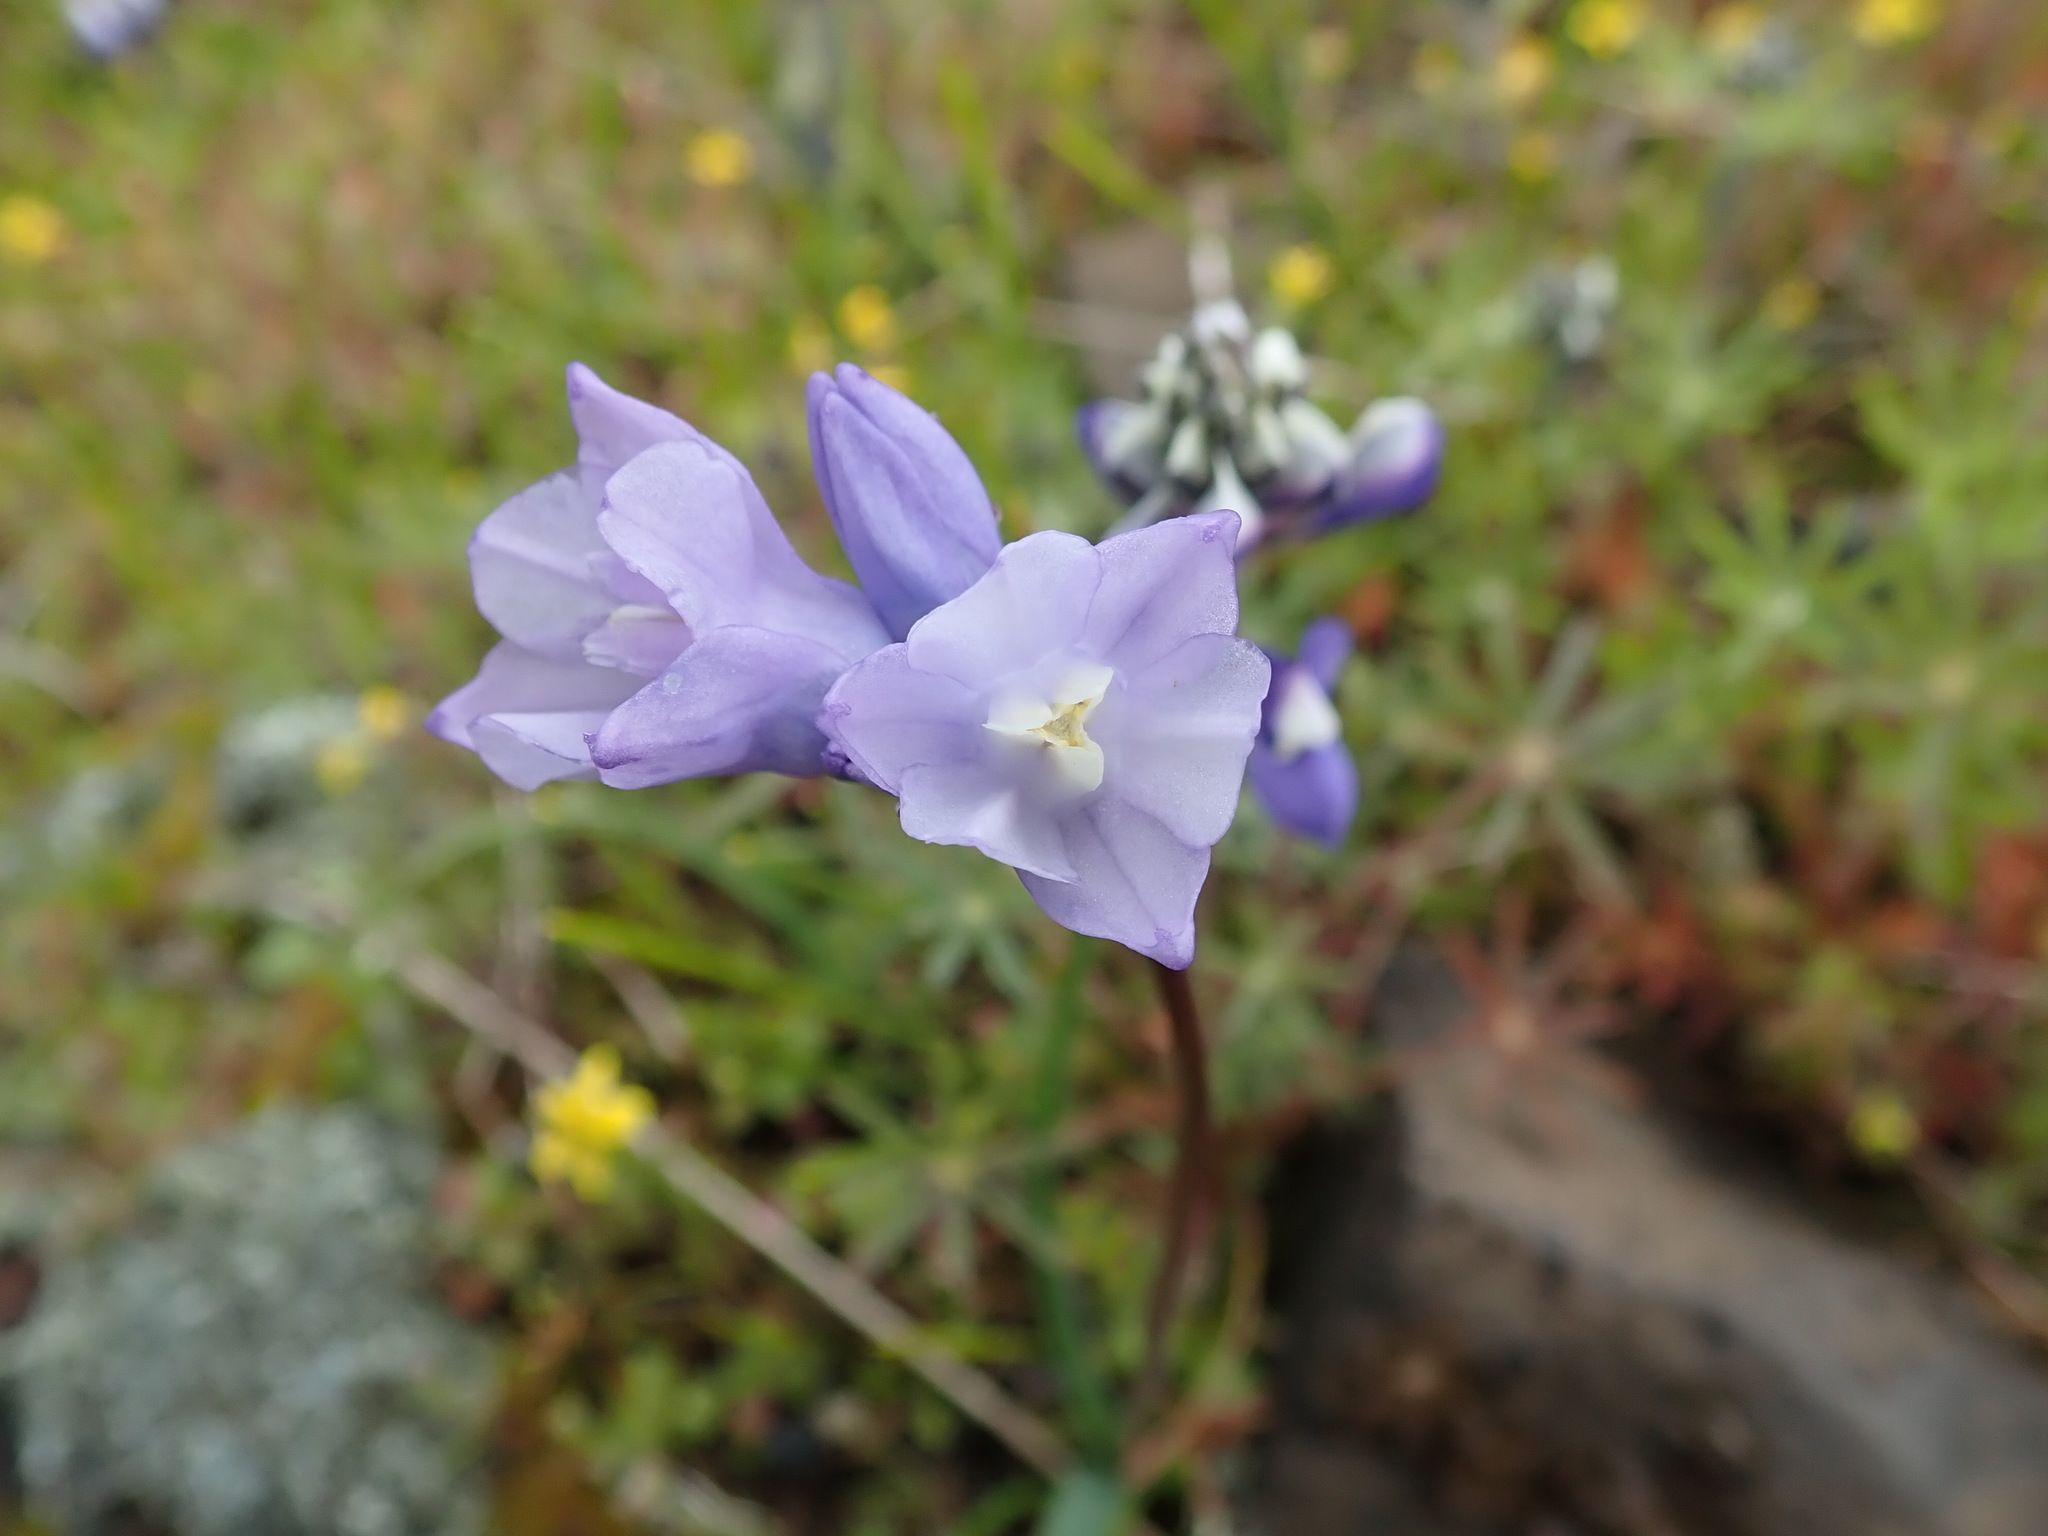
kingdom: Plantae
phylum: Tracheophyta
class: Liliopsida
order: Asparagales
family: Asparagaceae
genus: Dipterostemon
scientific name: Dipterostemon capitatus
